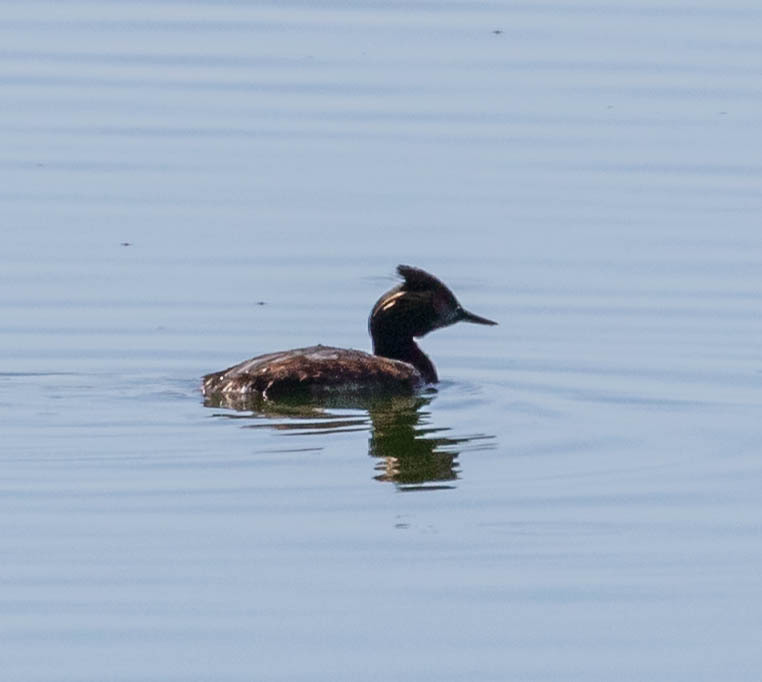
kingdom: Animalia
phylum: Chordata
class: Aves
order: Podicipediformes
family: Podicipedidae
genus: Podiceps
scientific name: Podiceps nigricollis
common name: Black-necked grebe
